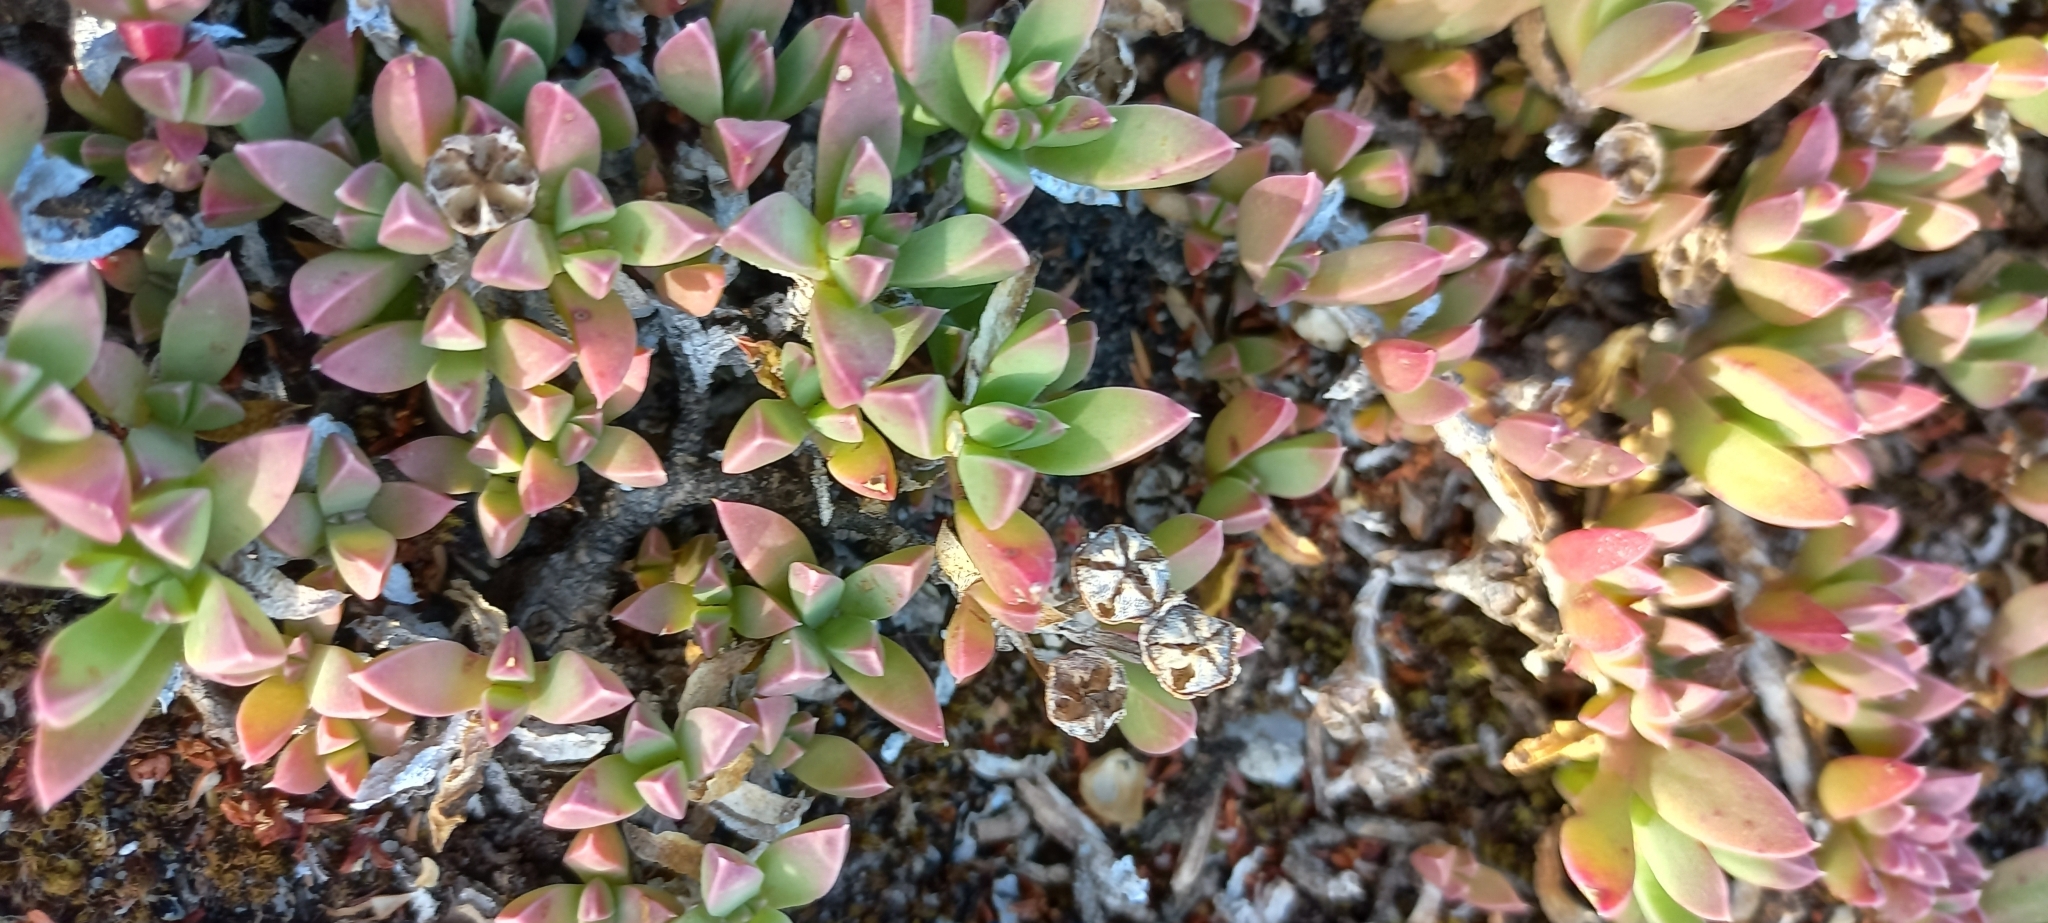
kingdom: Plantae
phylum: Tracheophyta
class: Magnoliopsida
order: Caryophyllales
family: Aizoaceae
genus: Delosperma
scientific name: Delosperma guthriei
